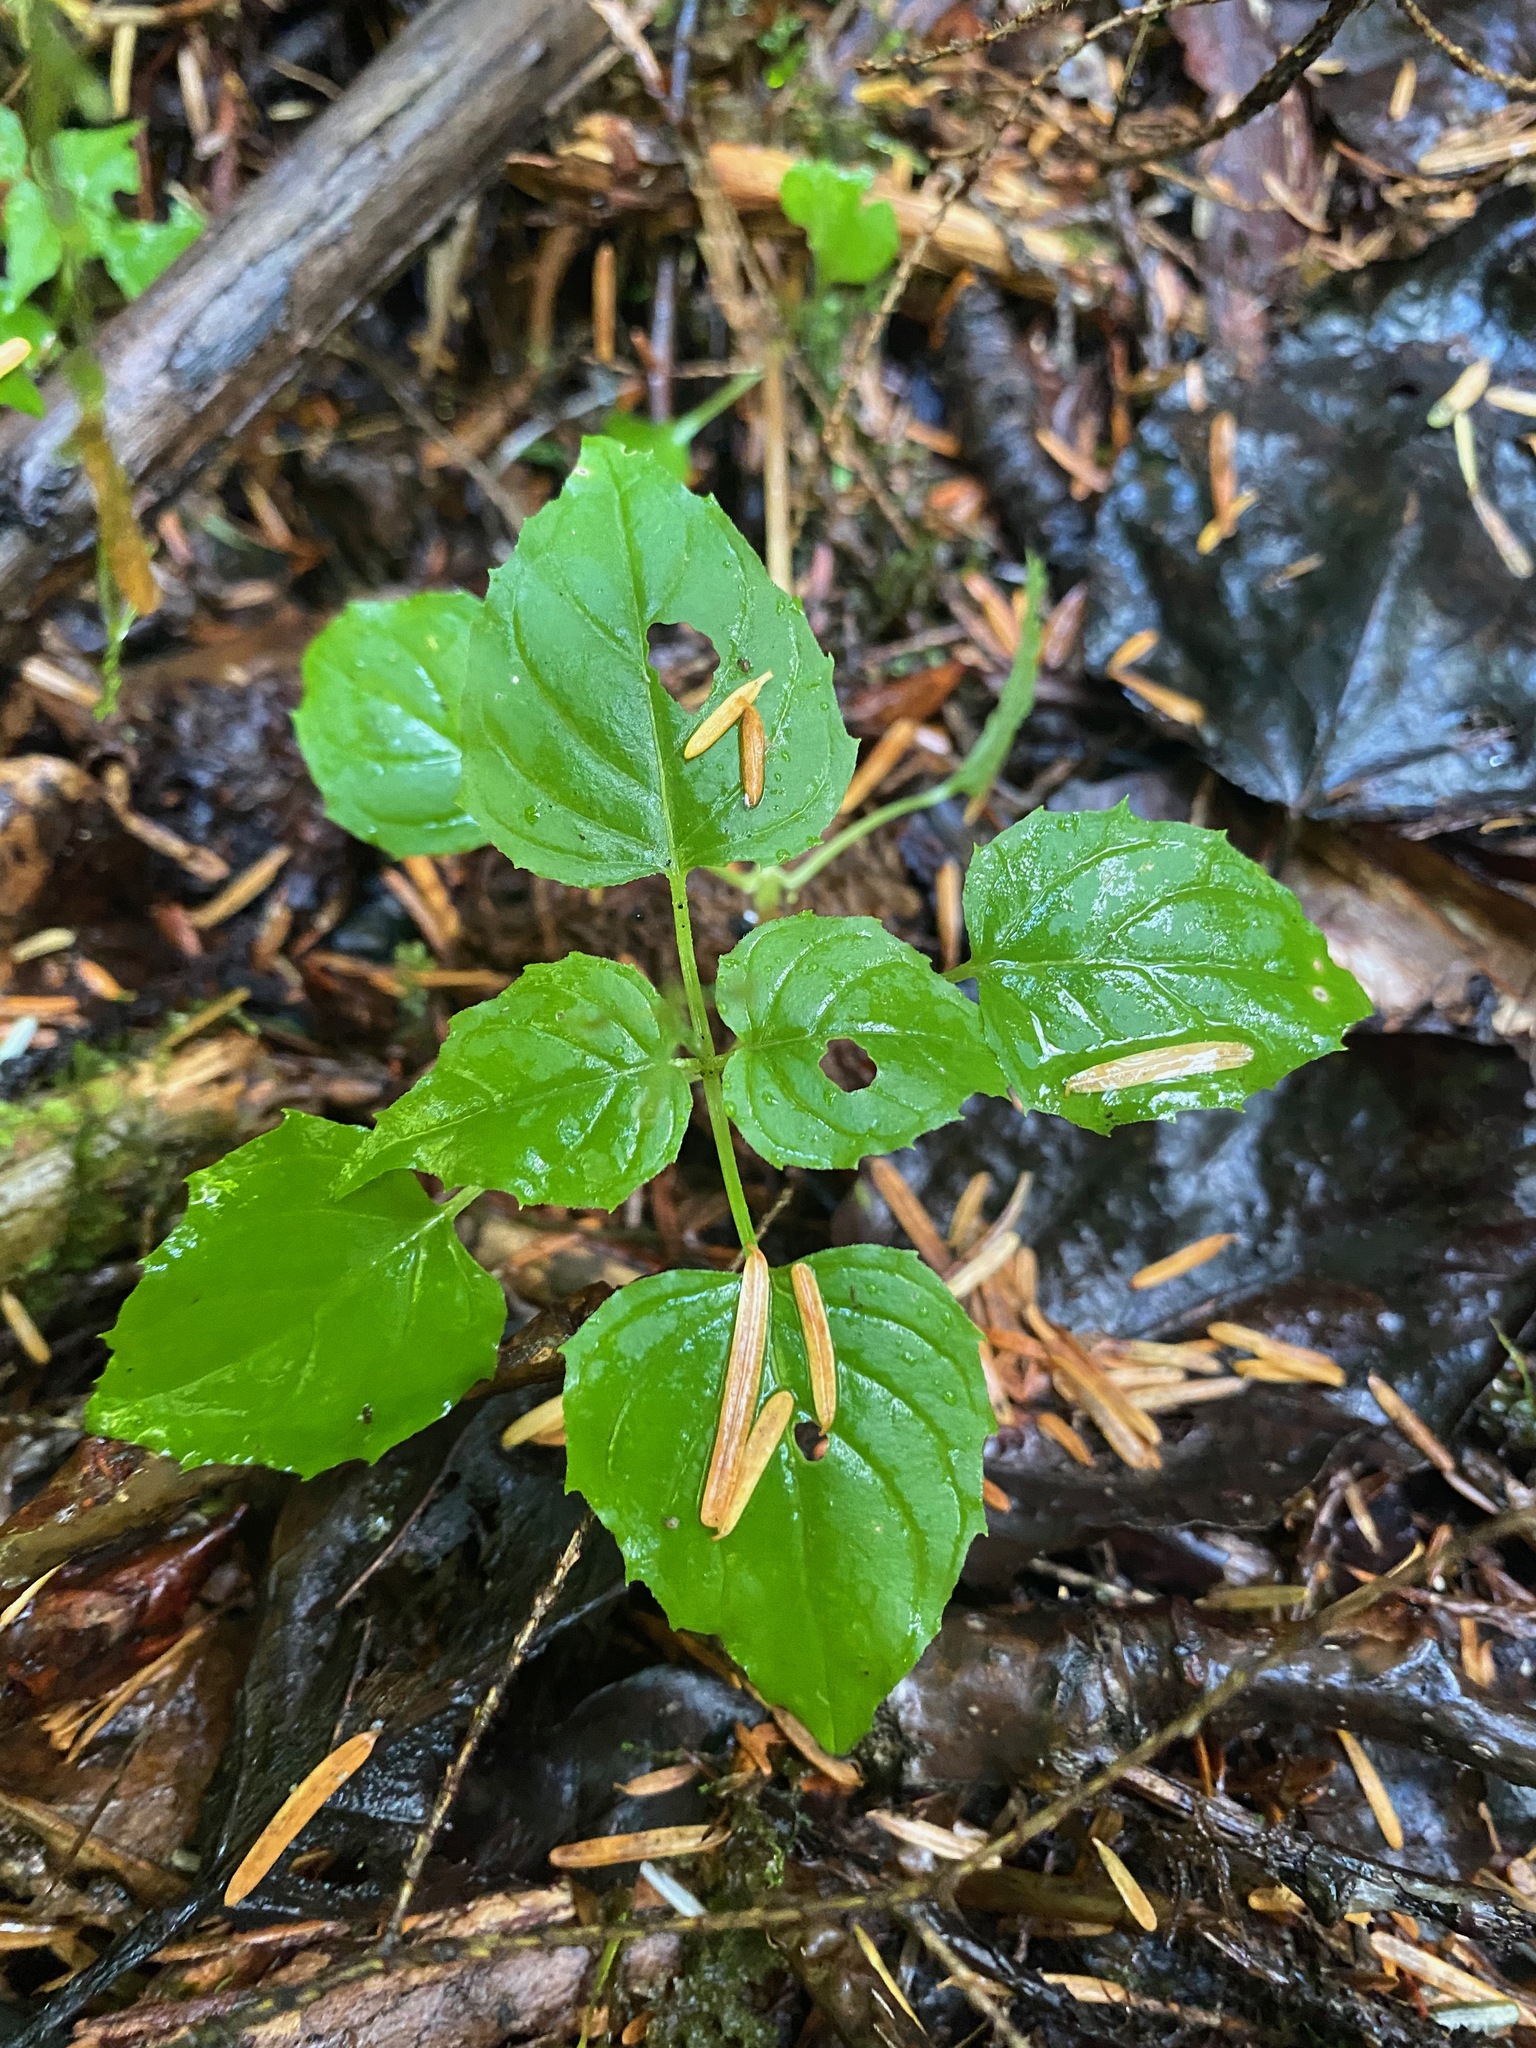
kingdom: Plantae
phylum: Tracheophyta
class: Magnoliopsida
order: Myrtales
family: Onagraceae
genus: Circaea
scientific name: Circaea alpina
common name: Alpine enchanter's-nightshade
